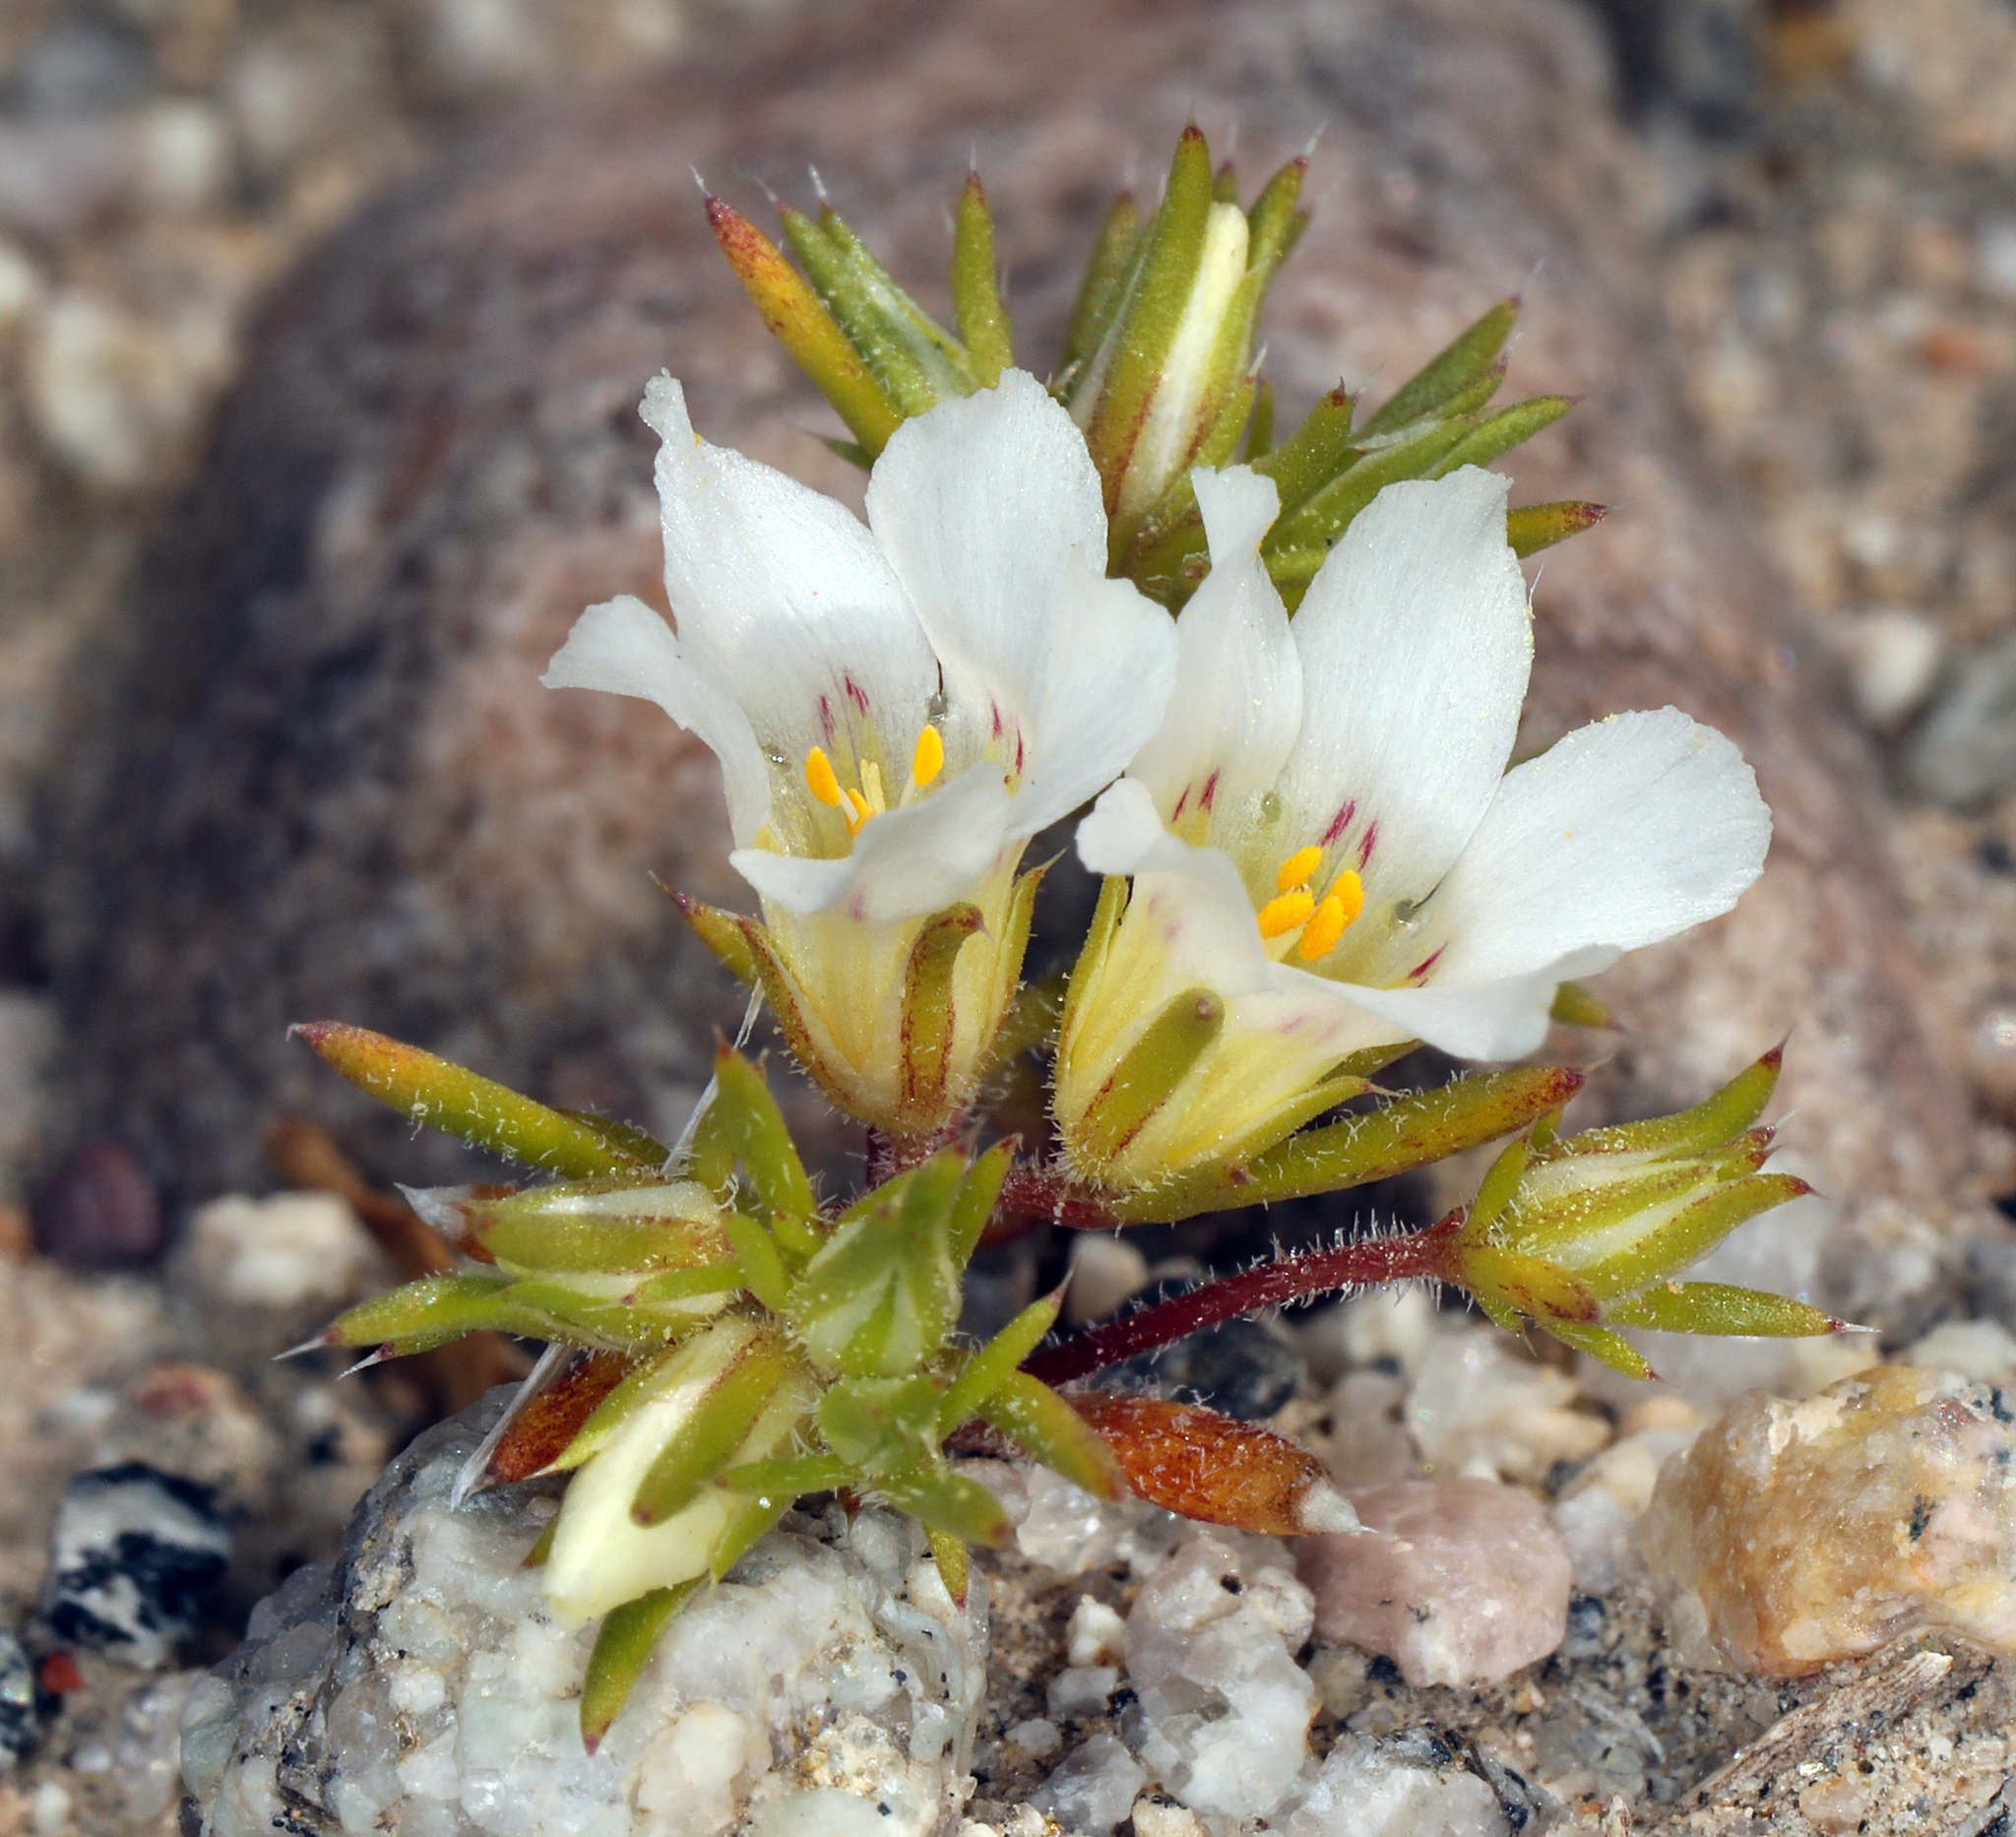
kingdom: Plantae
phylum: Tracheophyta
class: Magnoliopsida
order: Ericales
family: Polemoniaceae
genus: Linanthus
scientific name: Linanthus demissus
